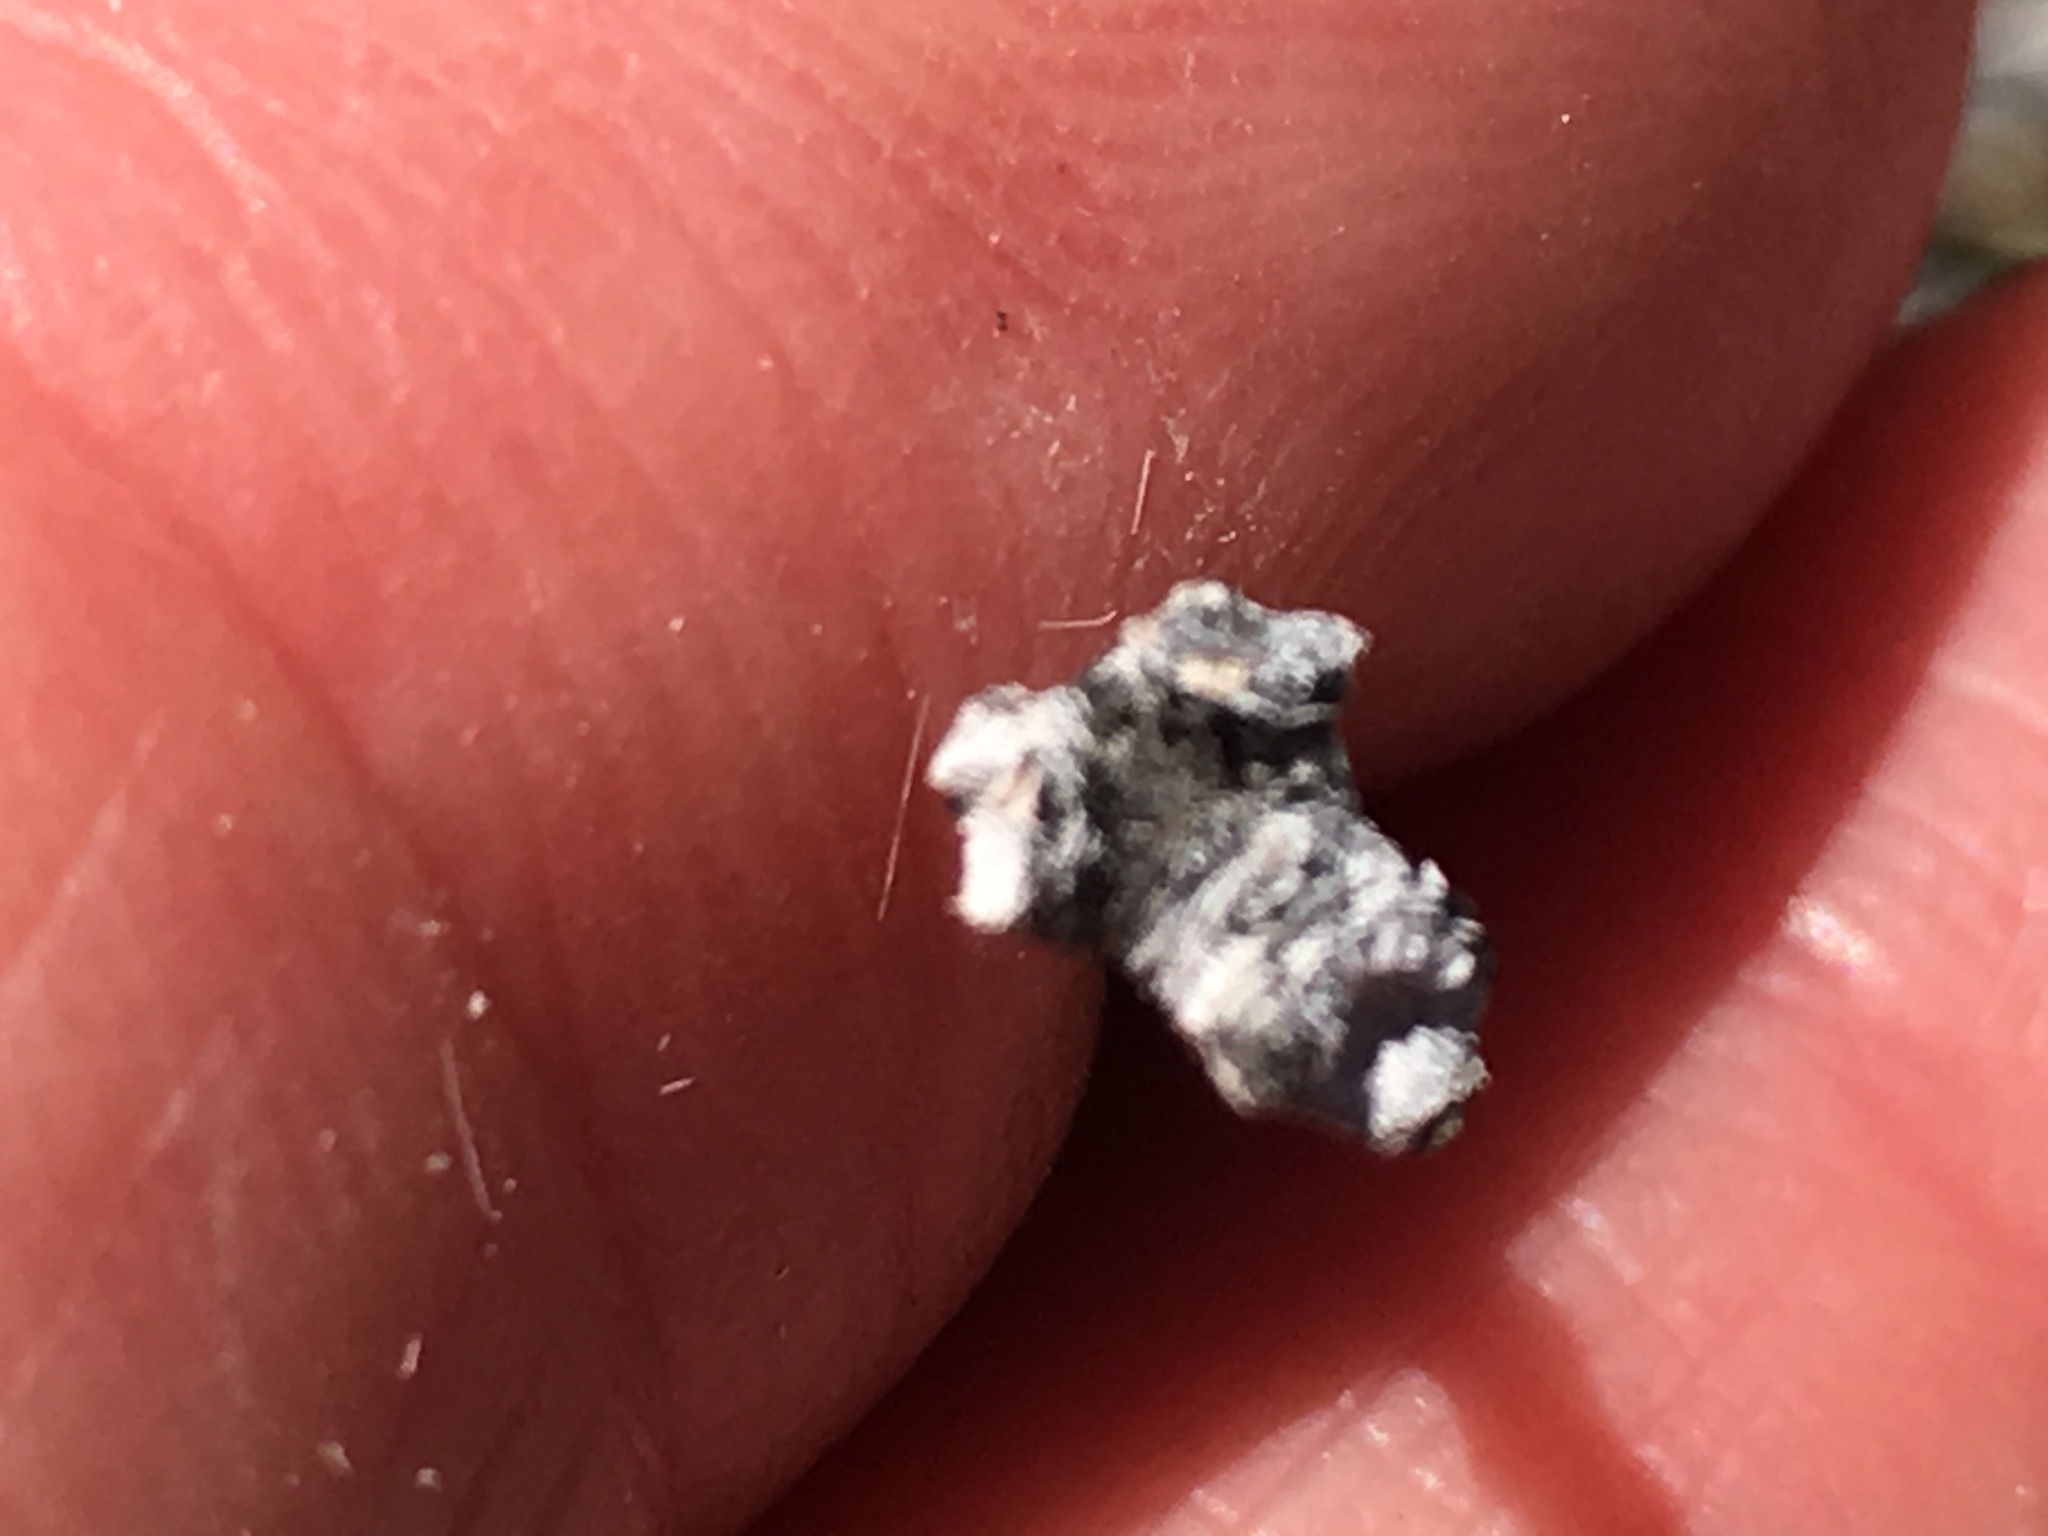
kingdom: Plantae
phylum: Tracheophyta
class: Gnetopsida
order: Ephedrales
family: Ephedraceae
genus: Ephedra
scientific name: Ephedra californica
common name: California ephedra
